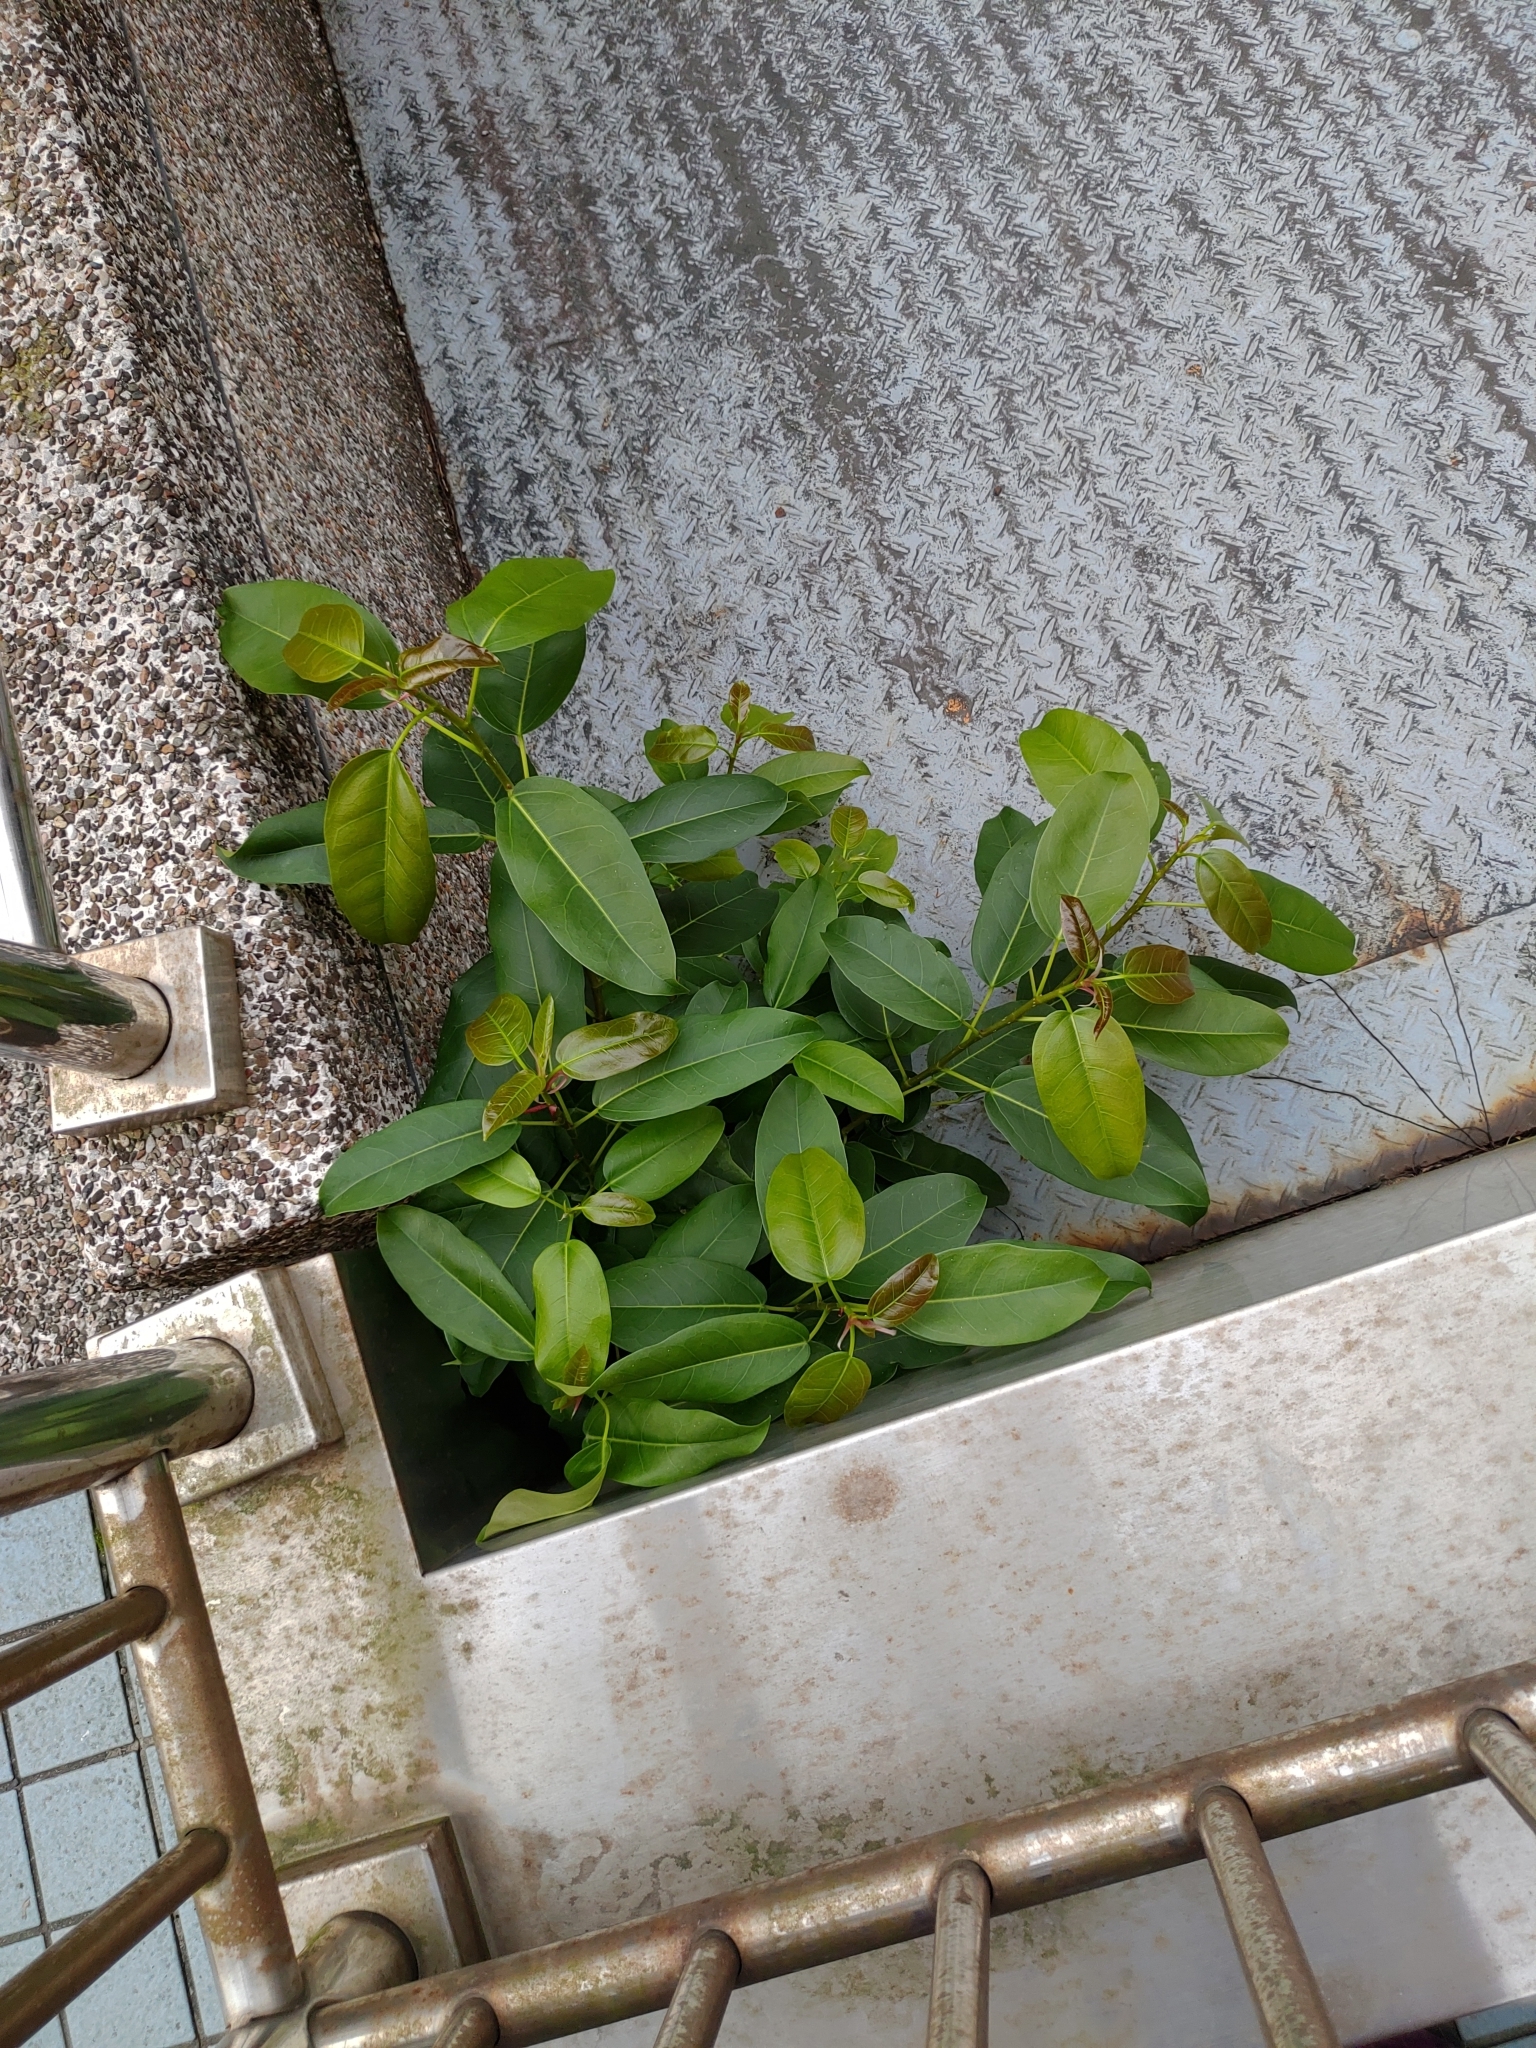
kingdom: Plantae
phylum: Tracheophyta
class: Magnoliopsida
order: Rosales
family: Moraceae
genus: Ficus
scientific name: Ficus subpisocarpa
